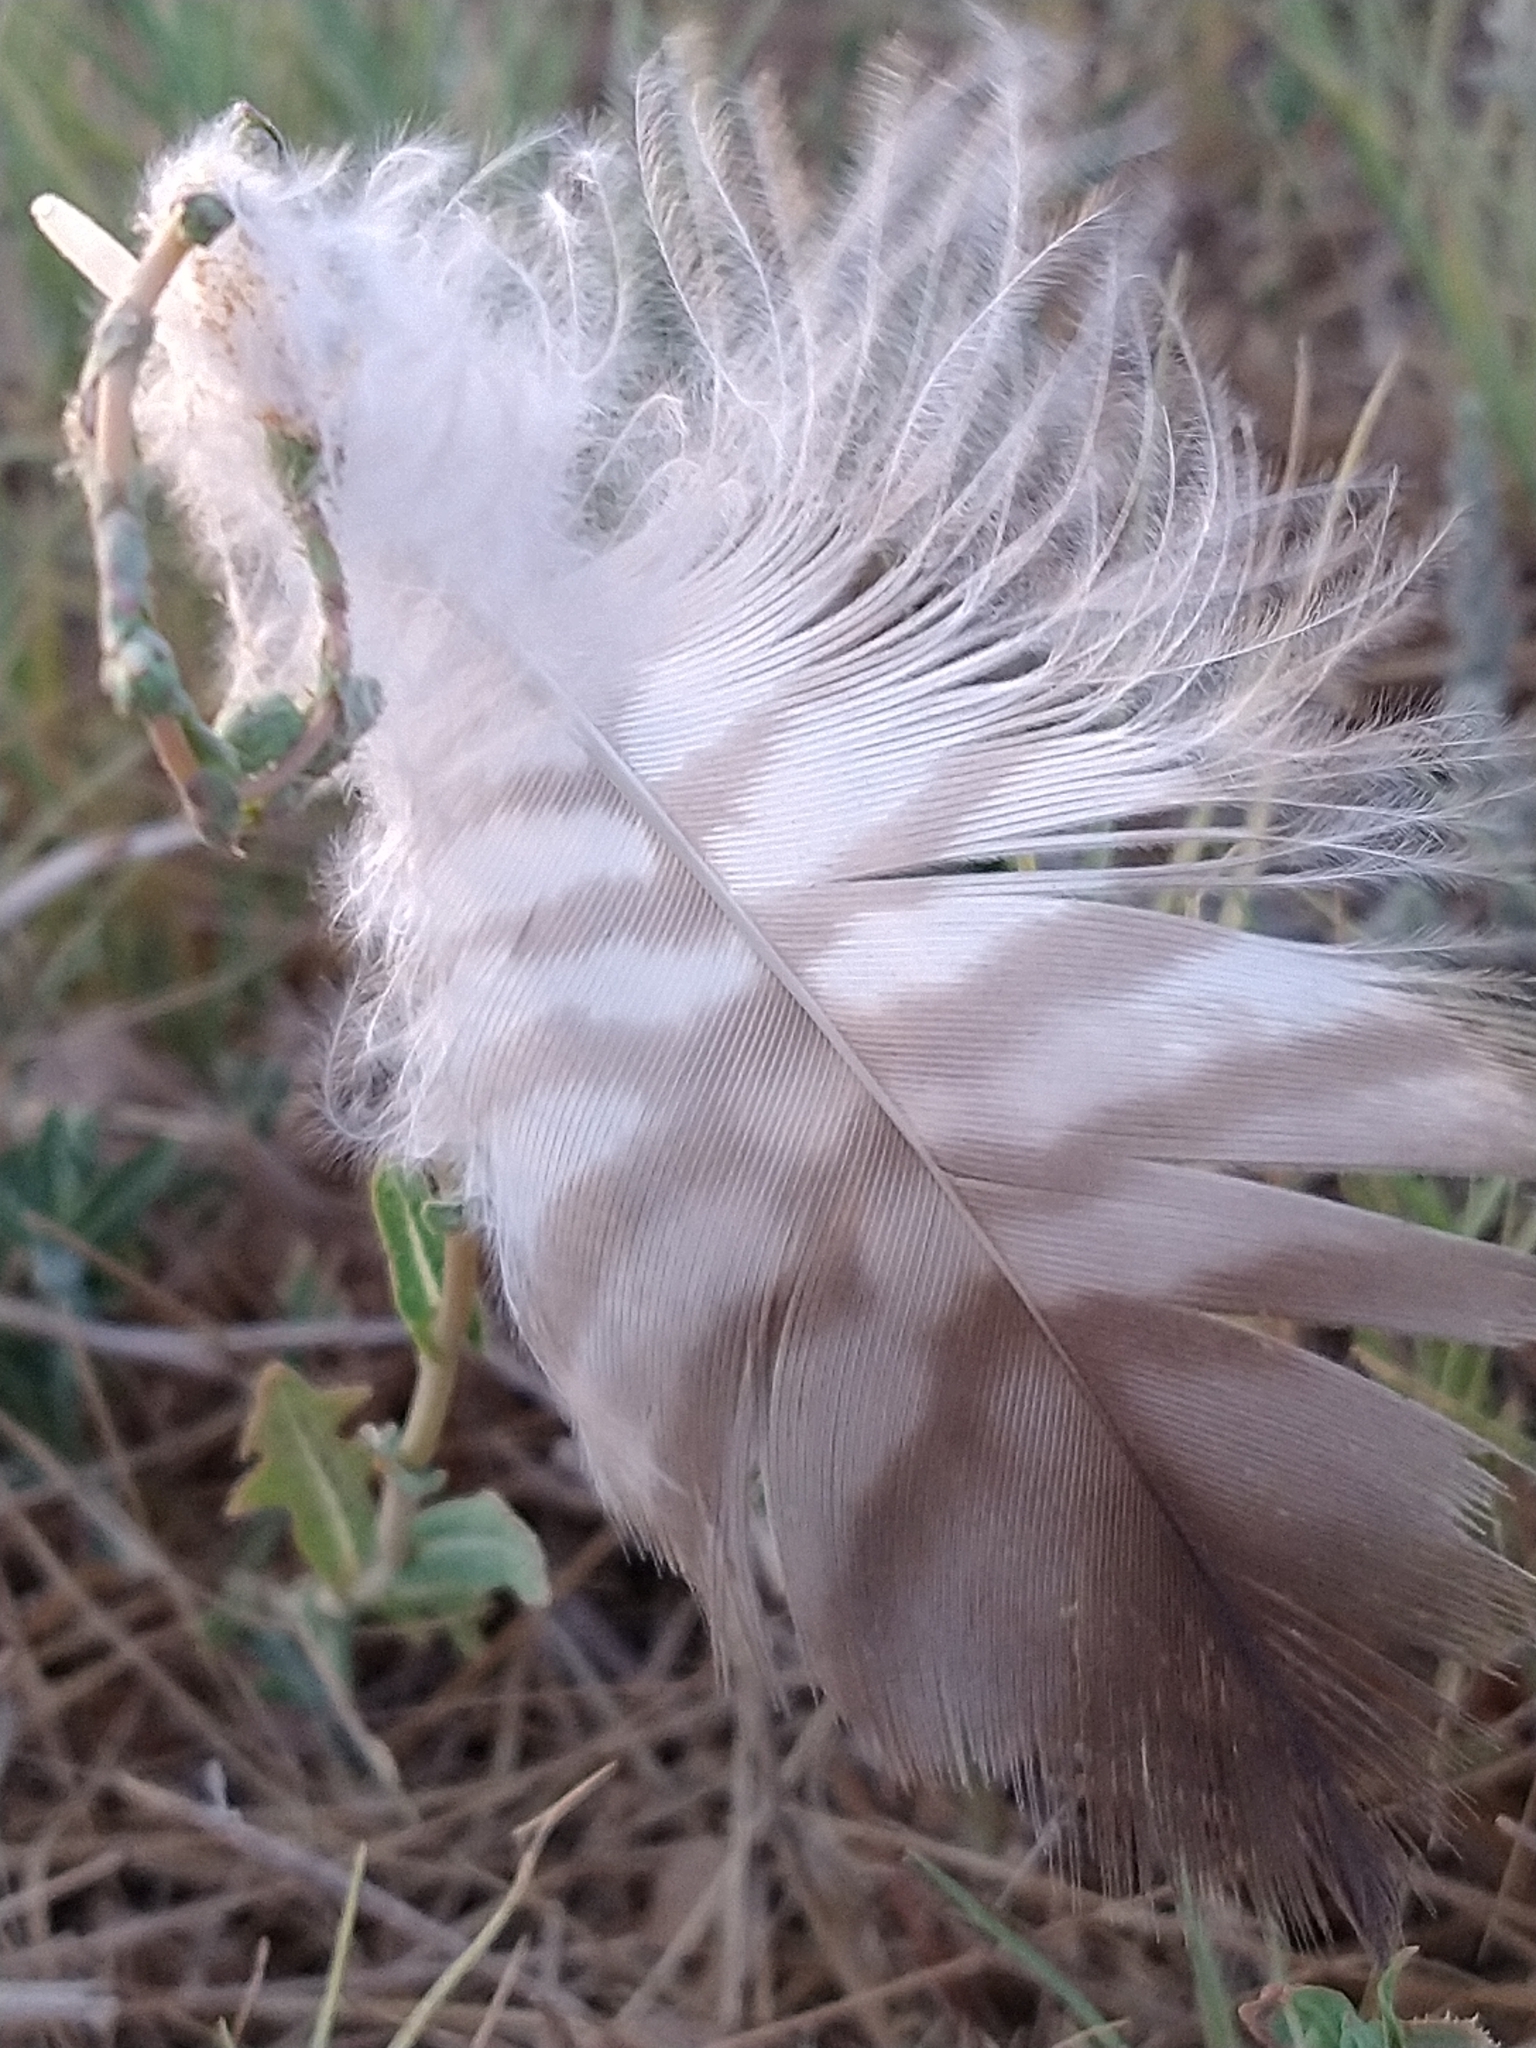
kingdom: Animalia
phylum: Chordata
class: Aves
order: Accipitriformes
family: Accipitridae
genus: Buteo
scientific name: Buteo jamaicensis
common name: Red-tailed hawk
